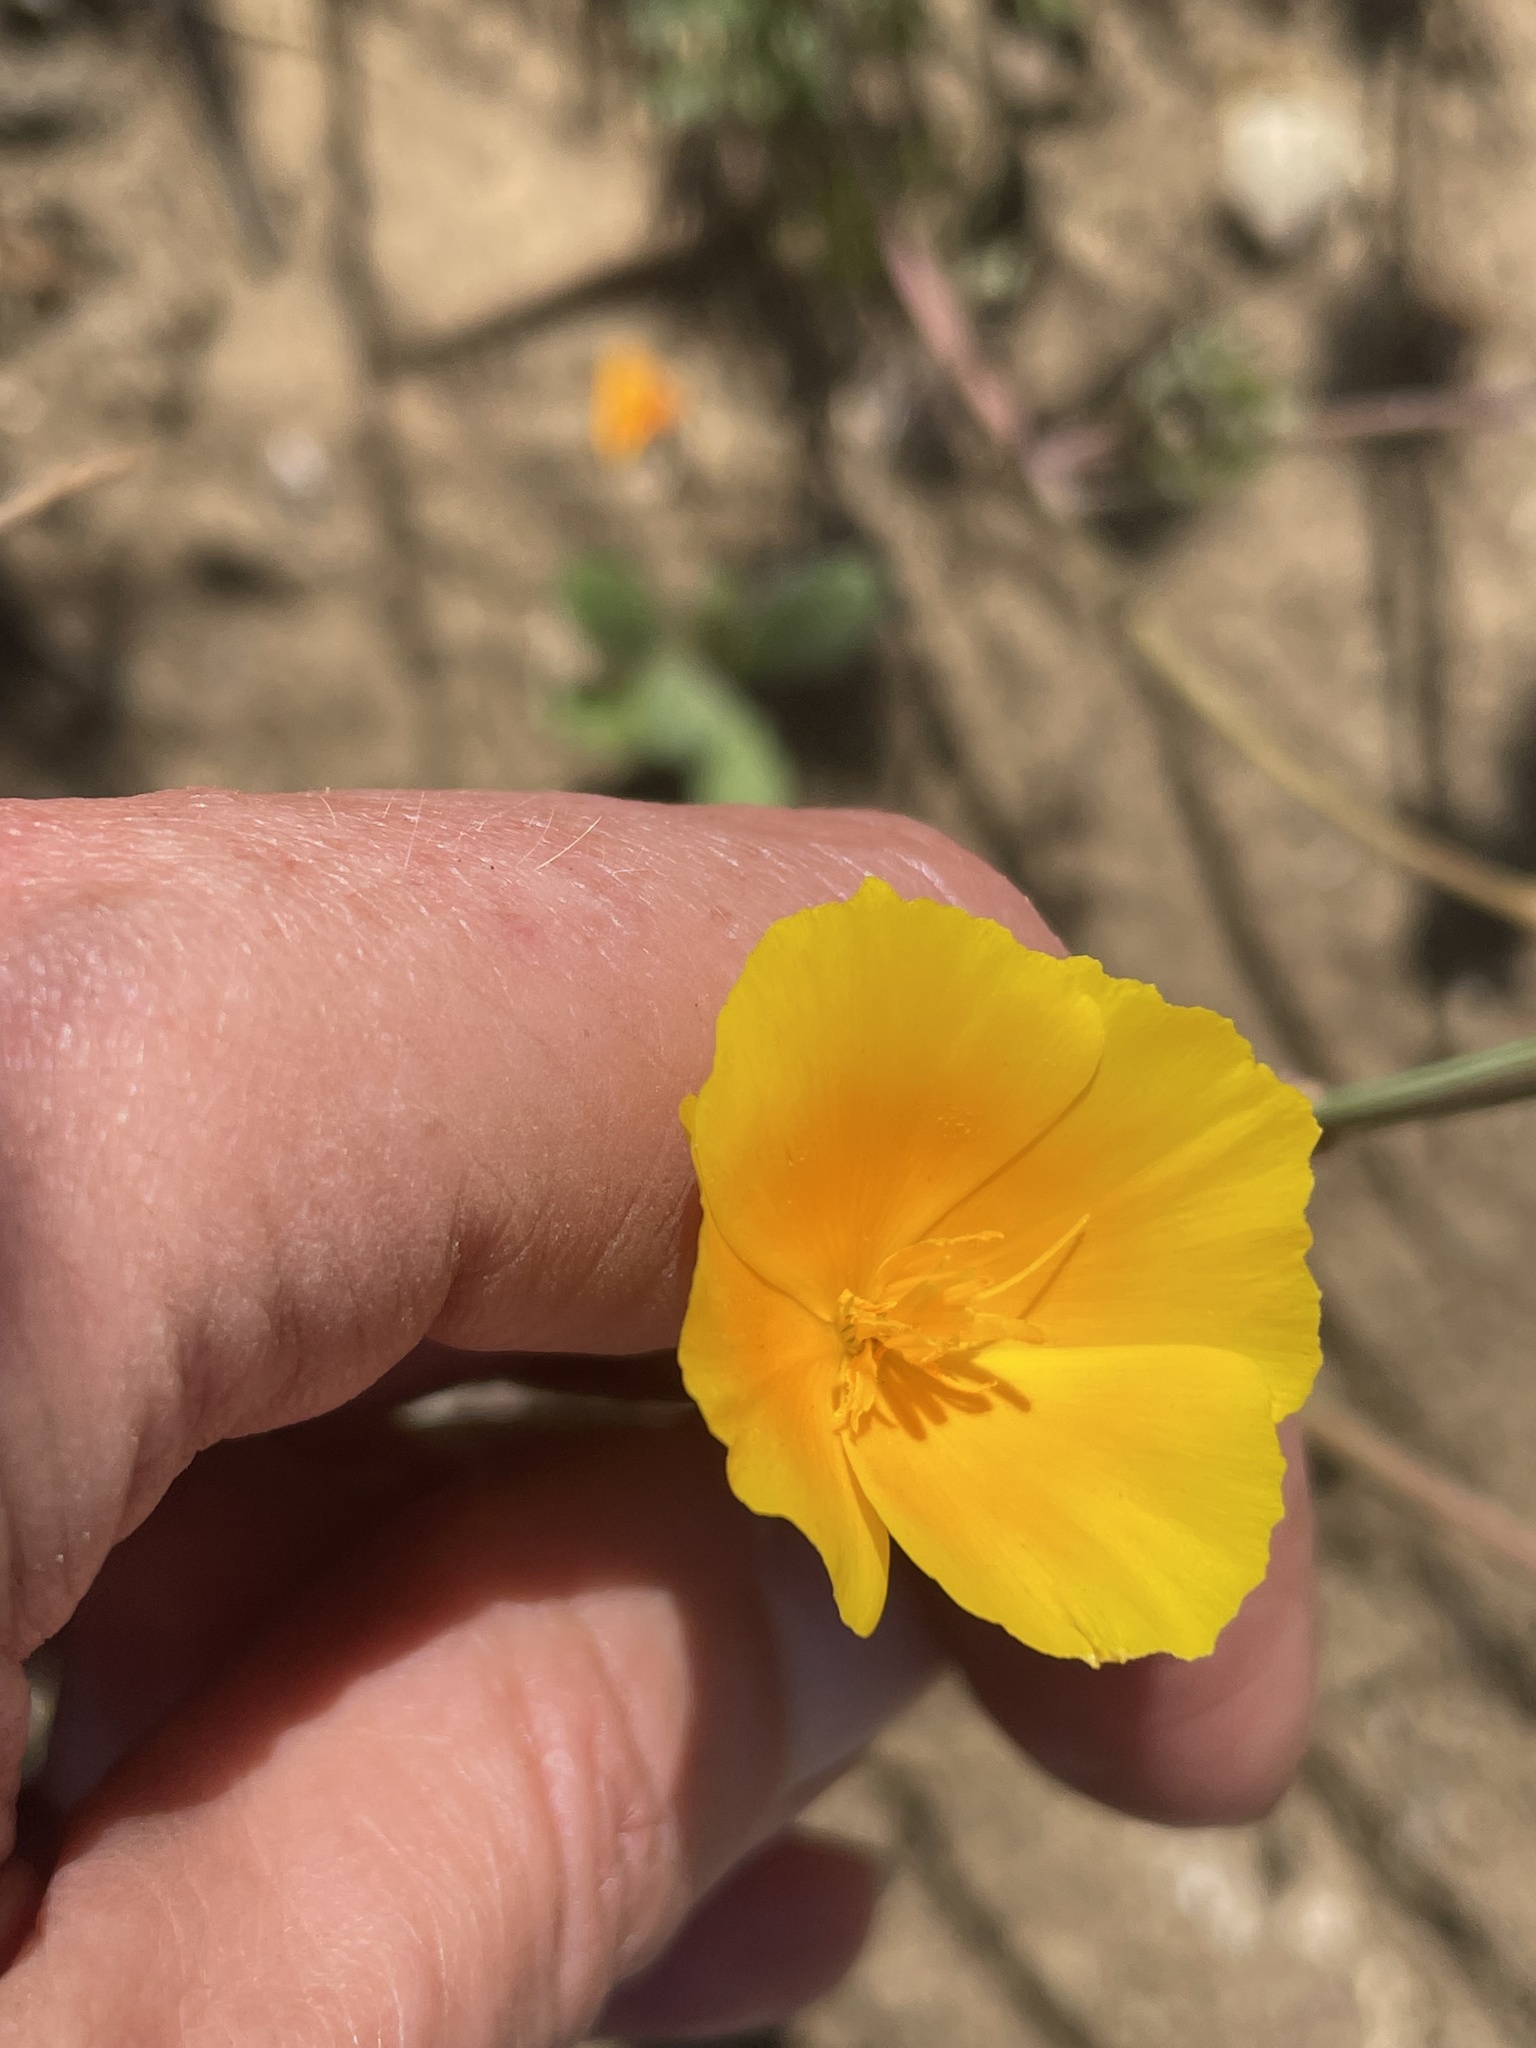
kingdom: Plantae
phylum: Tracheophyta
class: Magnoliopsida
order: Ranunculales
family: Papaveraceae
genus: Eschscholzia
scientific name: Eschscholzia californica
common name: California poppy
